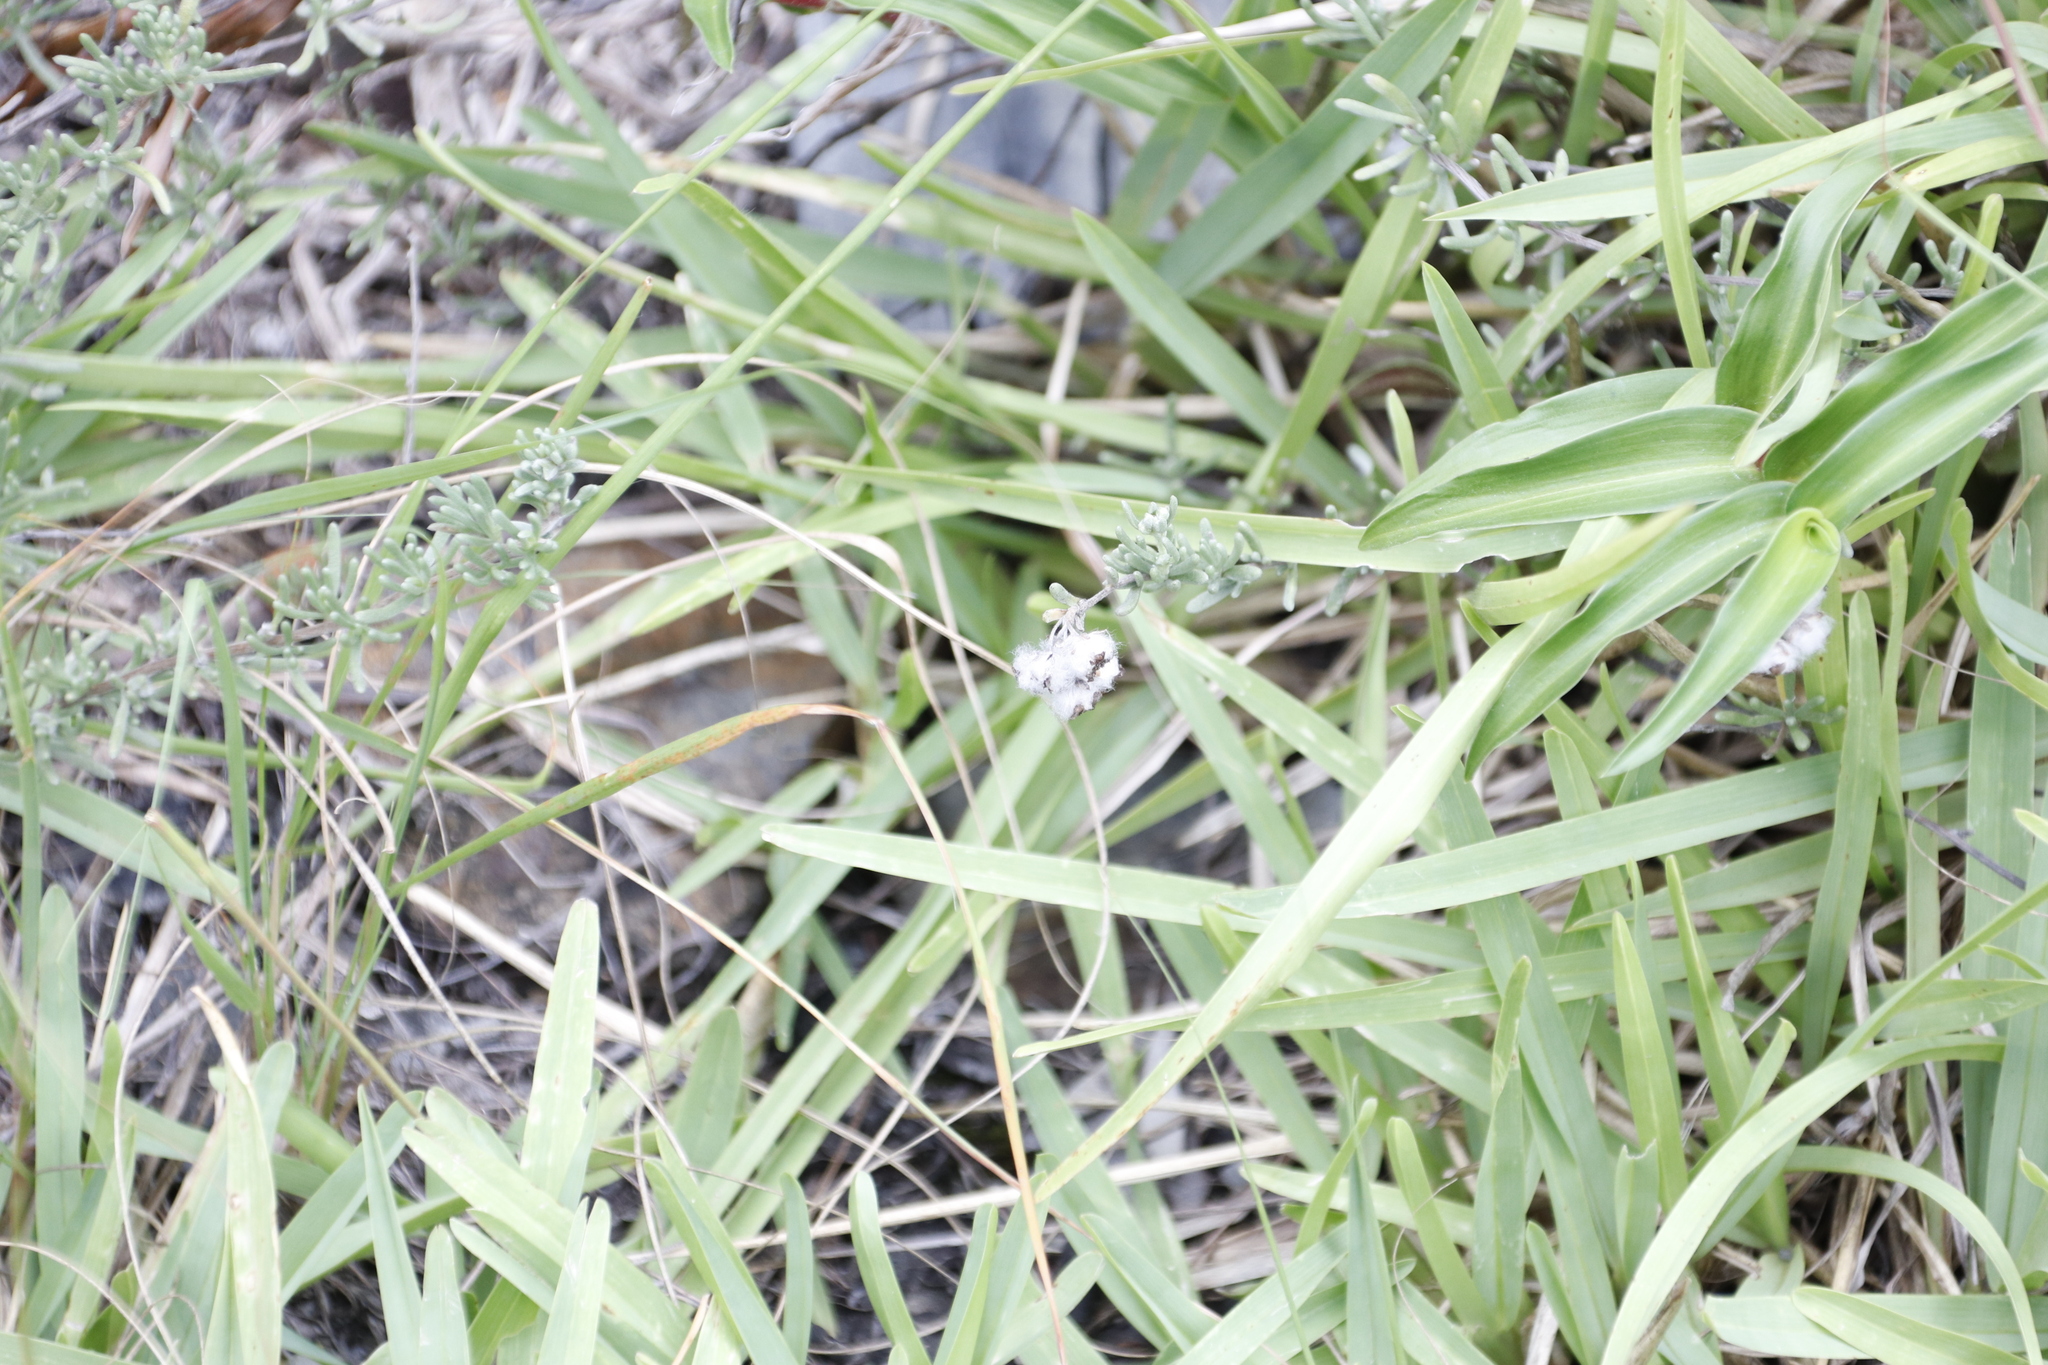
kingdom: Plantae
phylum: Tracheophyta
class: Liliopsida
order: Poales
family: Poaceae
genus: Stenotaphrum
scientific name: Stenotaphrum secundatum
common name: St. augustine grass
